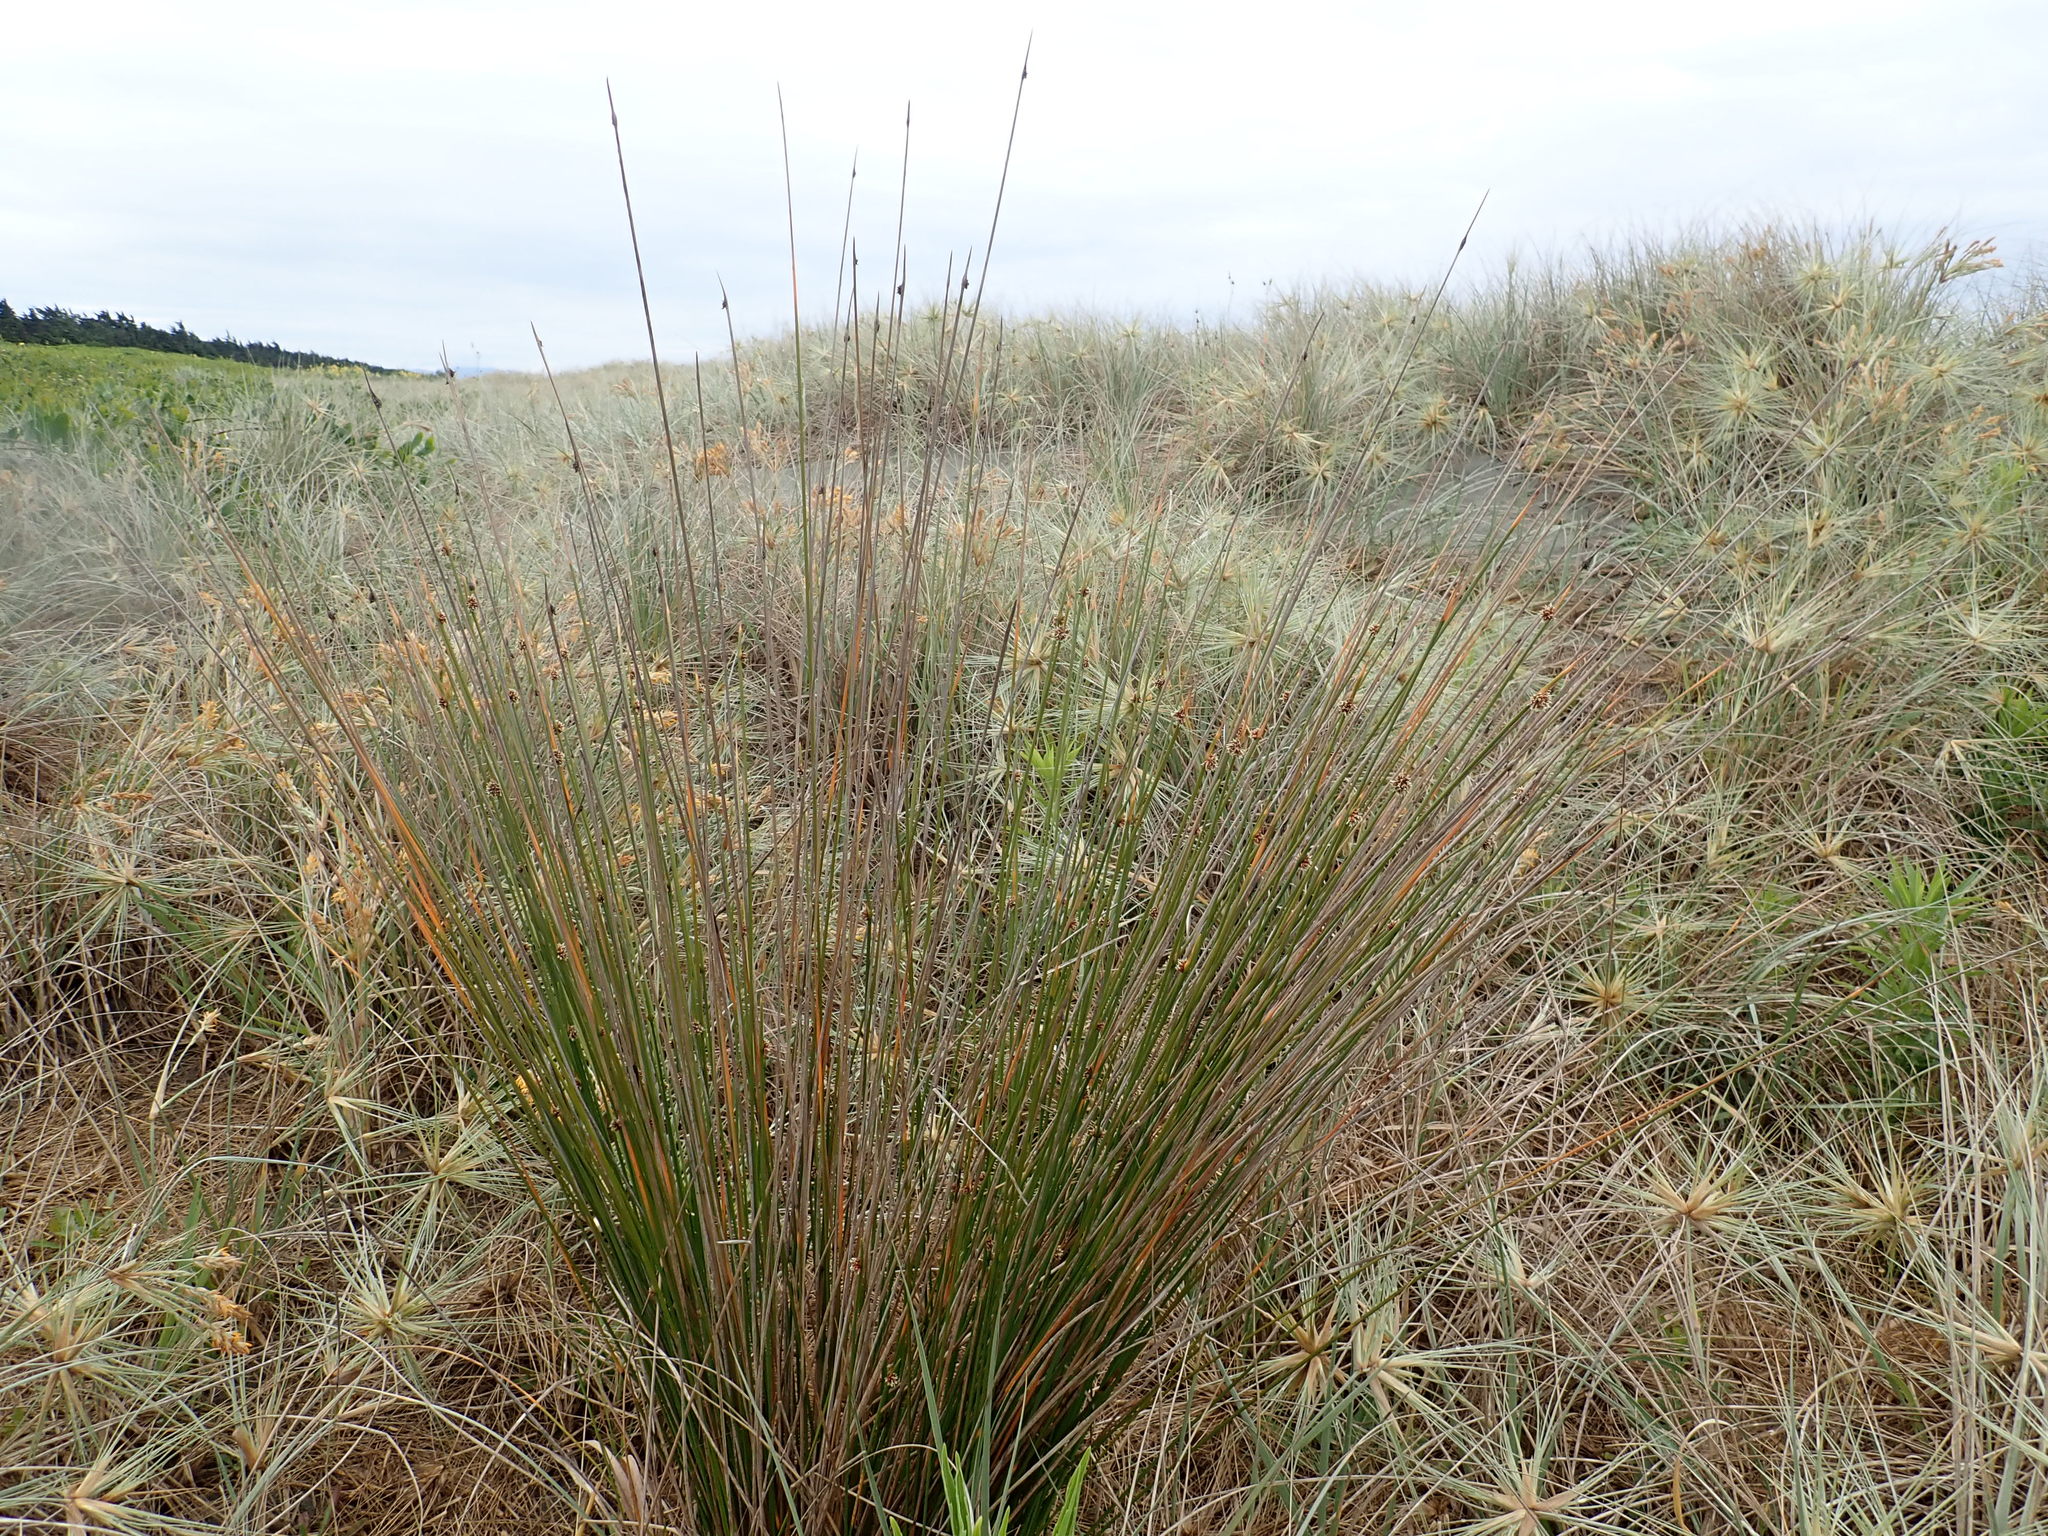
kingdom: Plantae
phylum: Tracheophyta
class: Liliopsida
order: Poales
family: Cyperaceae
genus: Ficinia
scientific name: Ficinia nodosa
